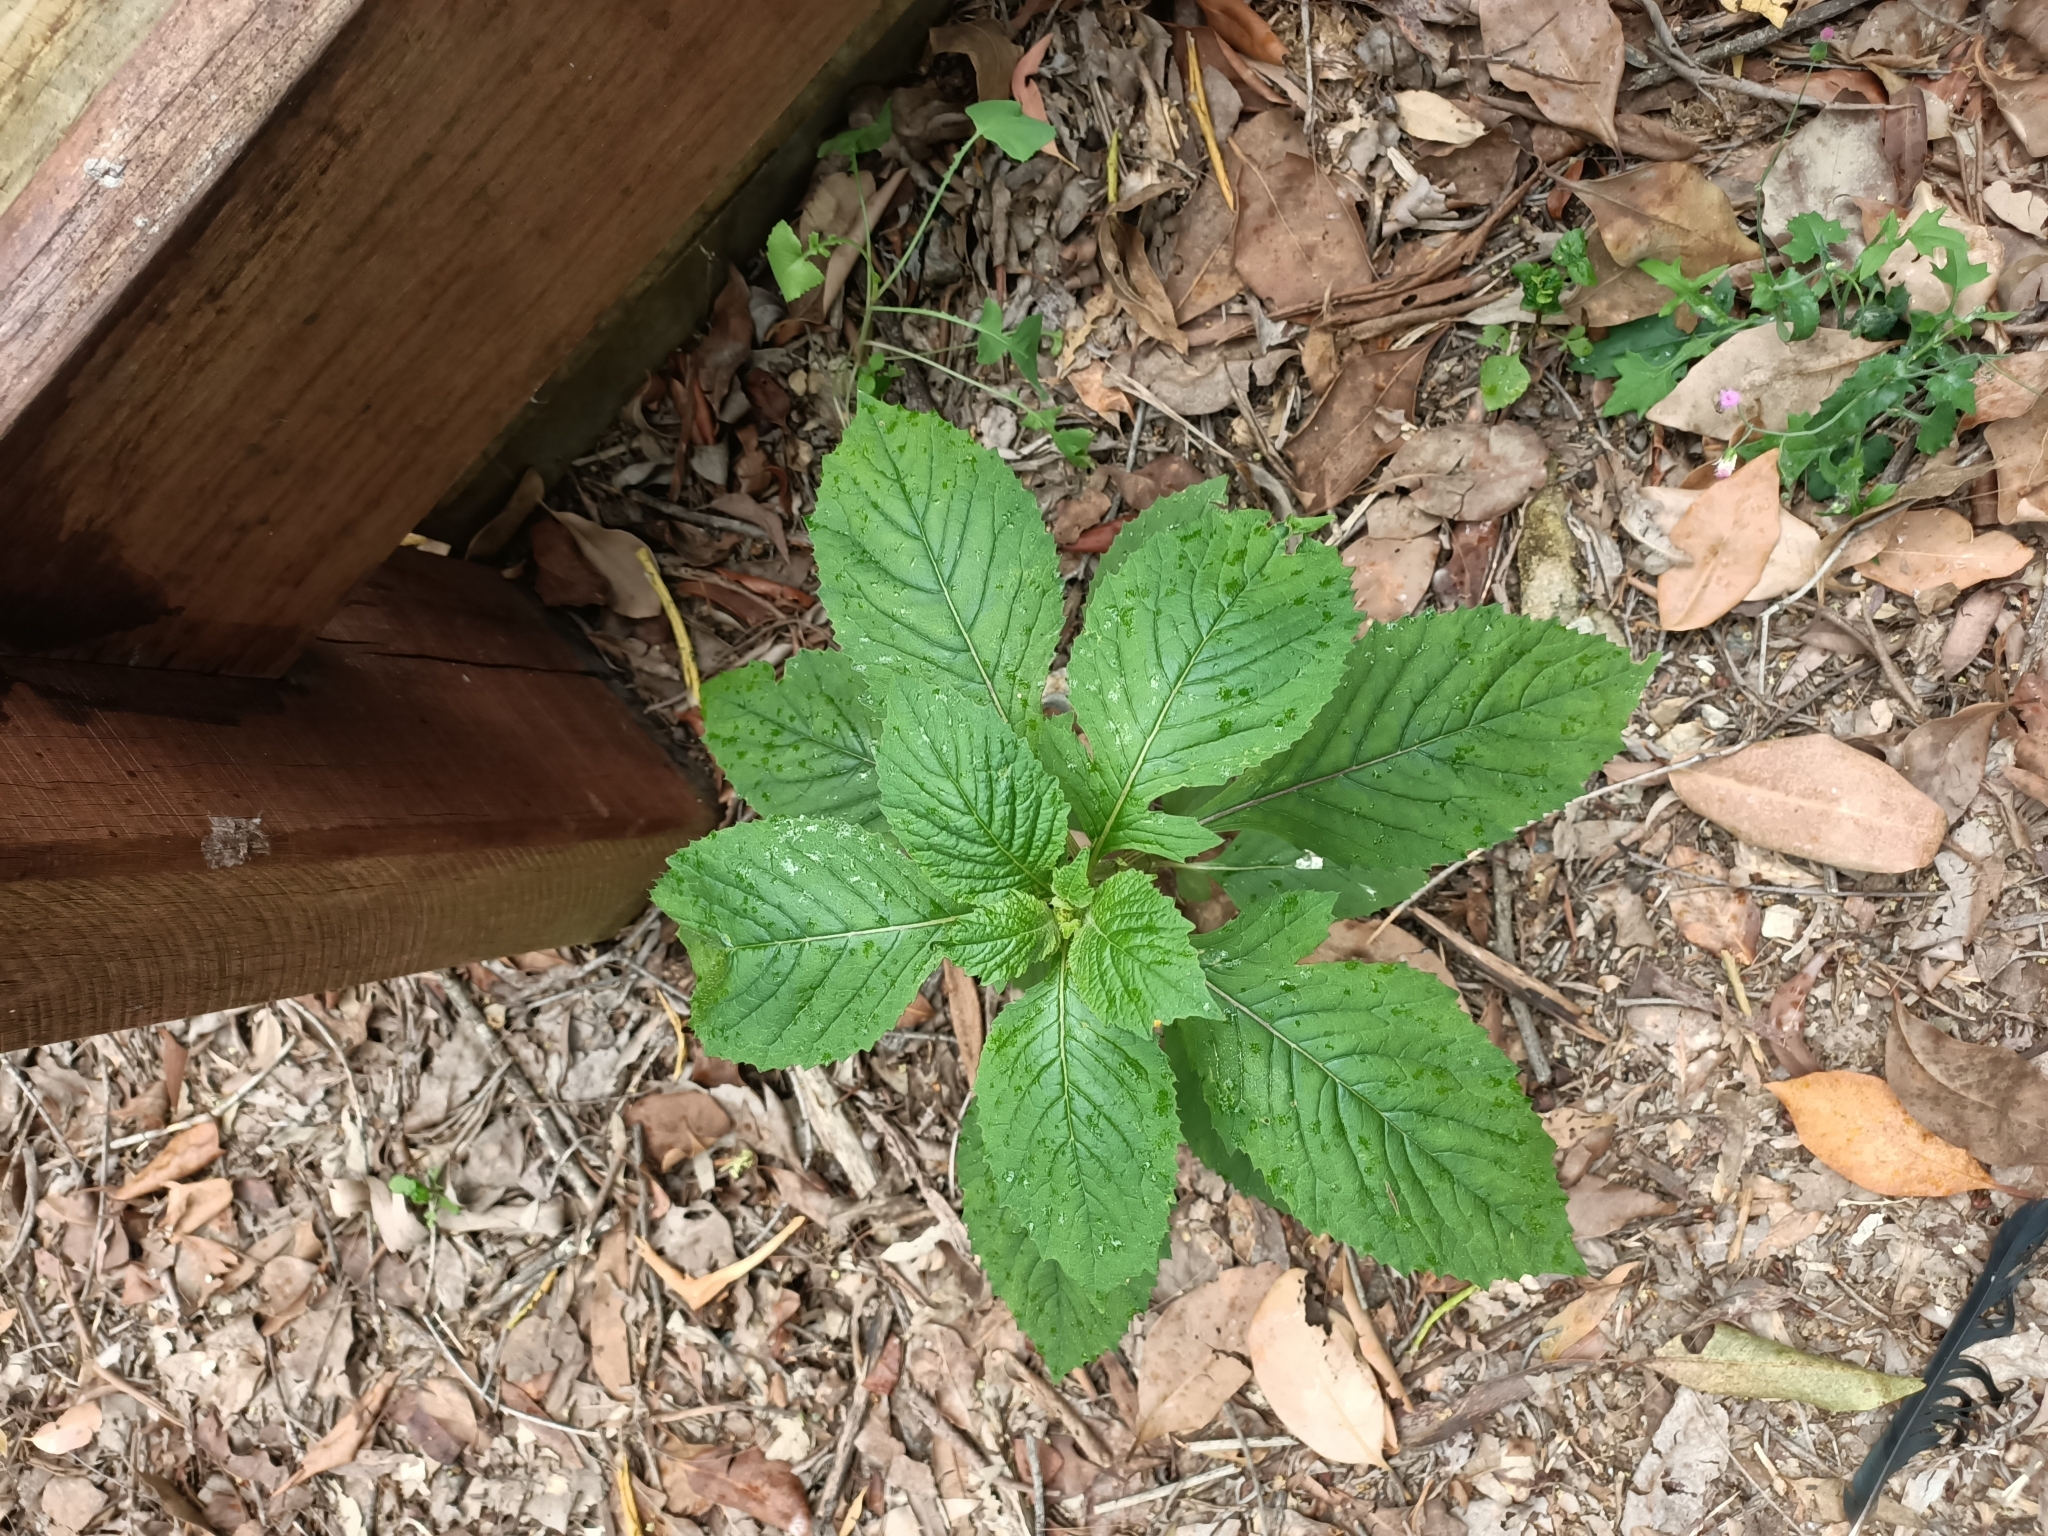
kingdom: Plantae
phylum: Tracheophyta
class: Magnoliopsida
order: Asterales
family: Asteraceae
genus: Crassocephalum
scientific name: Crassocephalum crepidioides
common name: Redflower ragleaf
